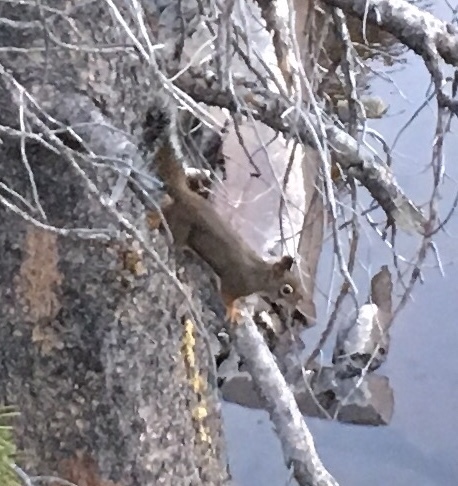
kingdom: Animalia
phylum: Chordata
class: Mammalia
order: Rodentia
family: Sciuridae
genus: Tamiasciurus
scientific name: Tamiasciurus douglasii
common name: Douglas's squirrel
